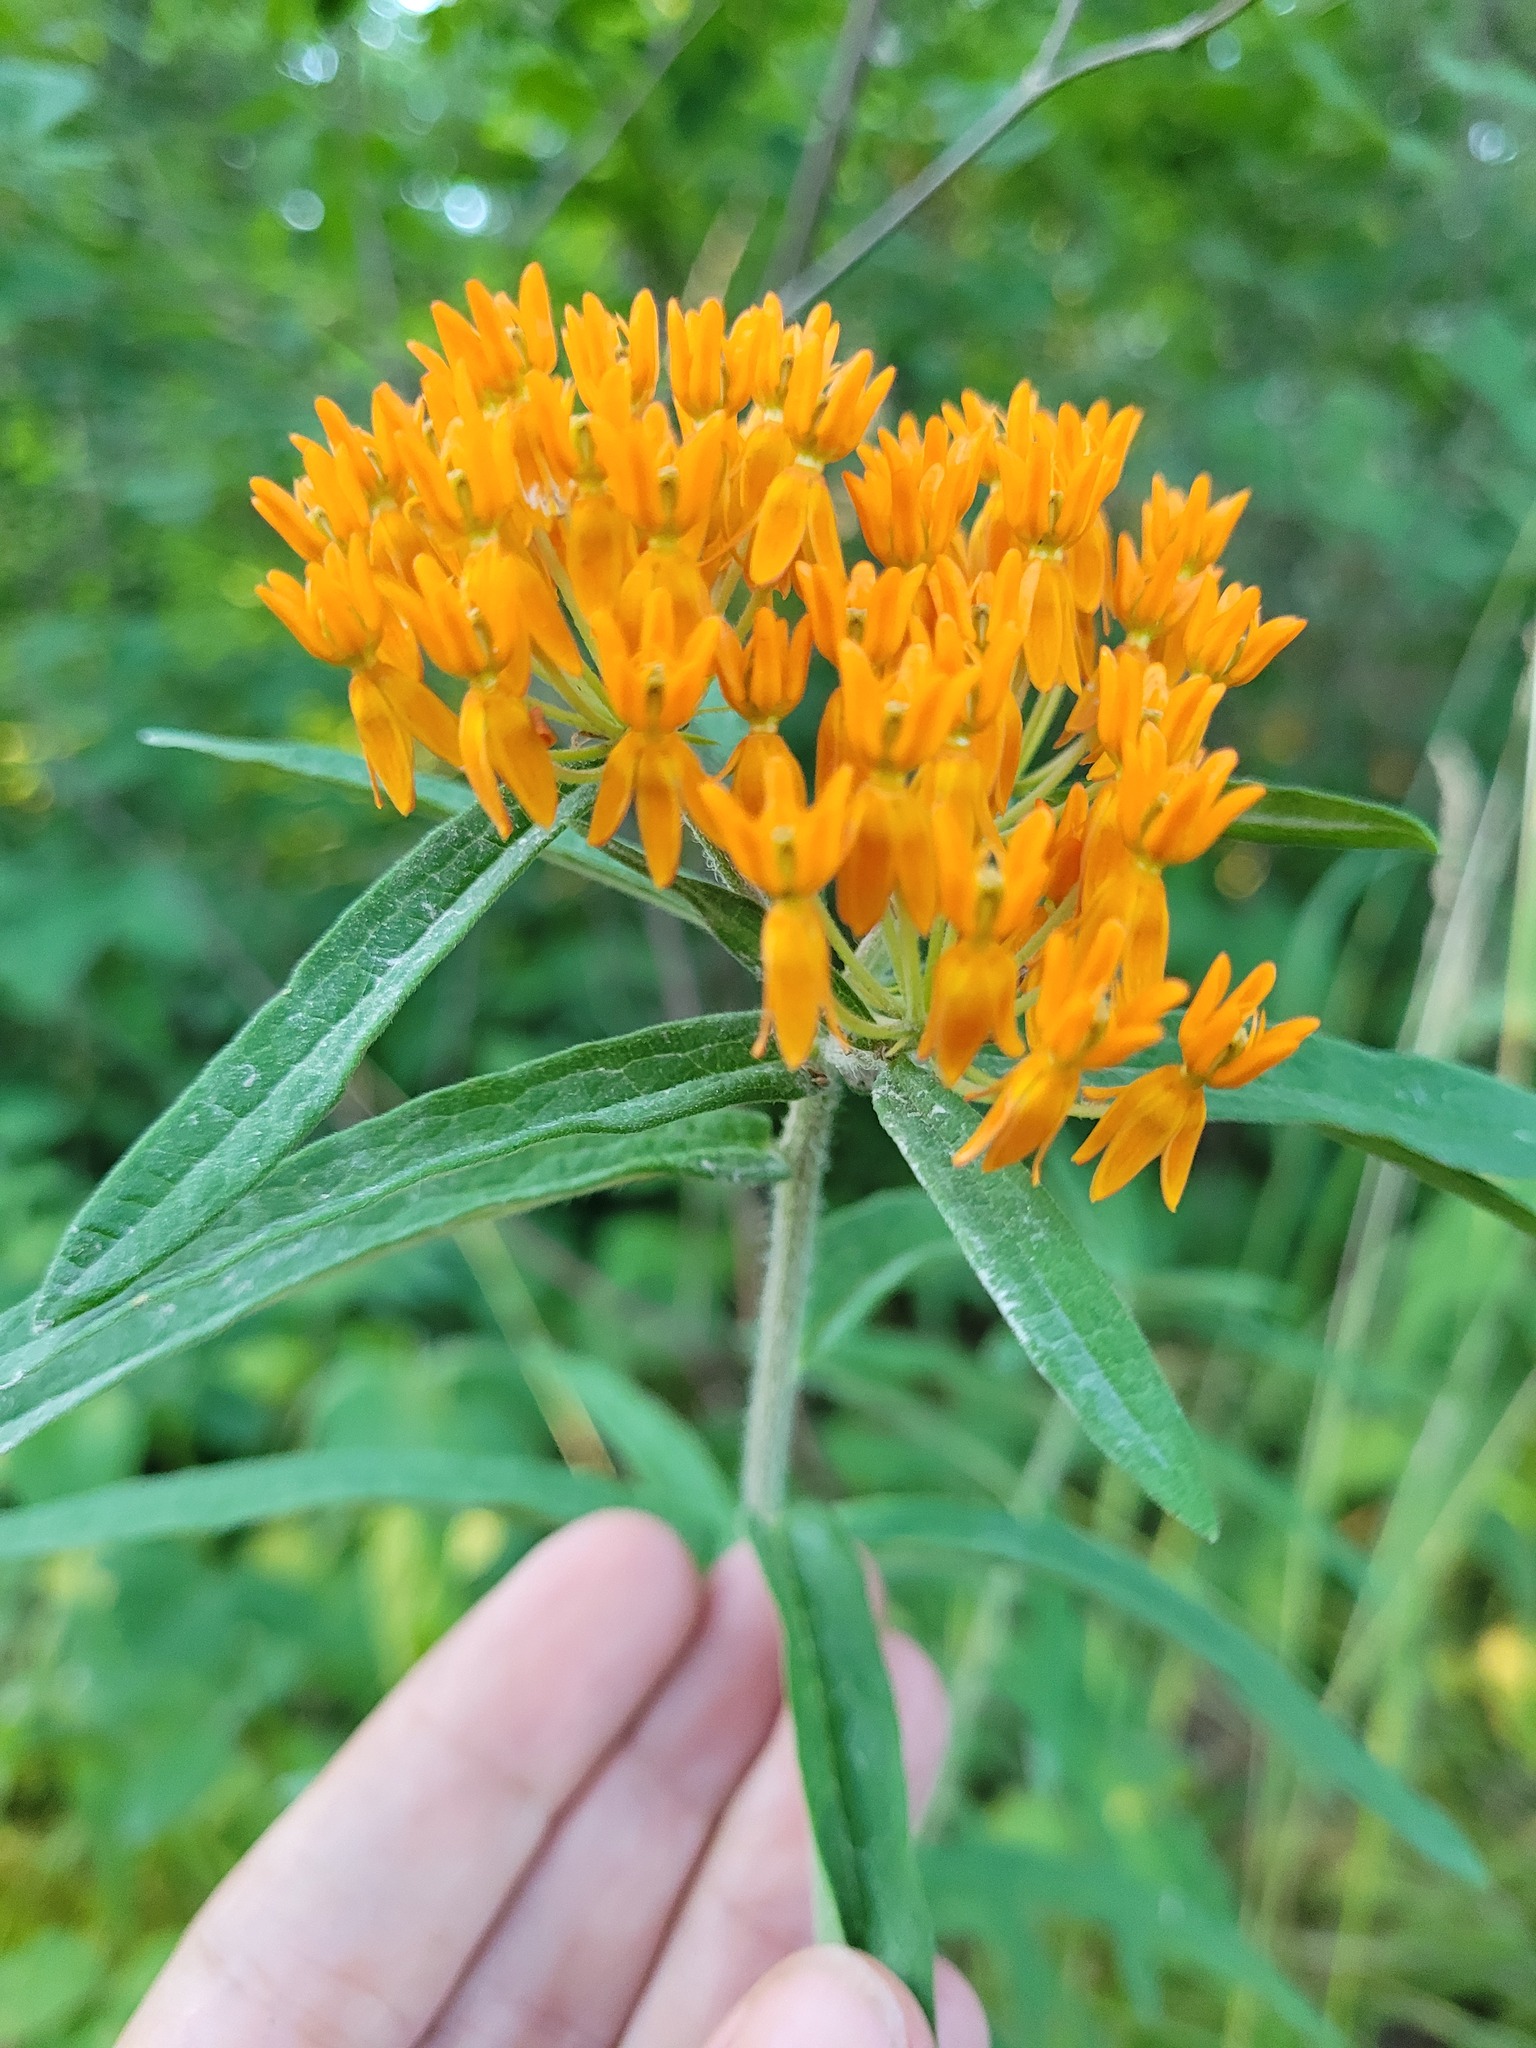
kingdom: Plantae
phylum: Tracheophyta
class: Magnoliopsida
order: Gentianales
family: Apocynaceae
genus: Asclepias
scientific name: Asclepias tuberosa
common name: Butterfly milkweed
